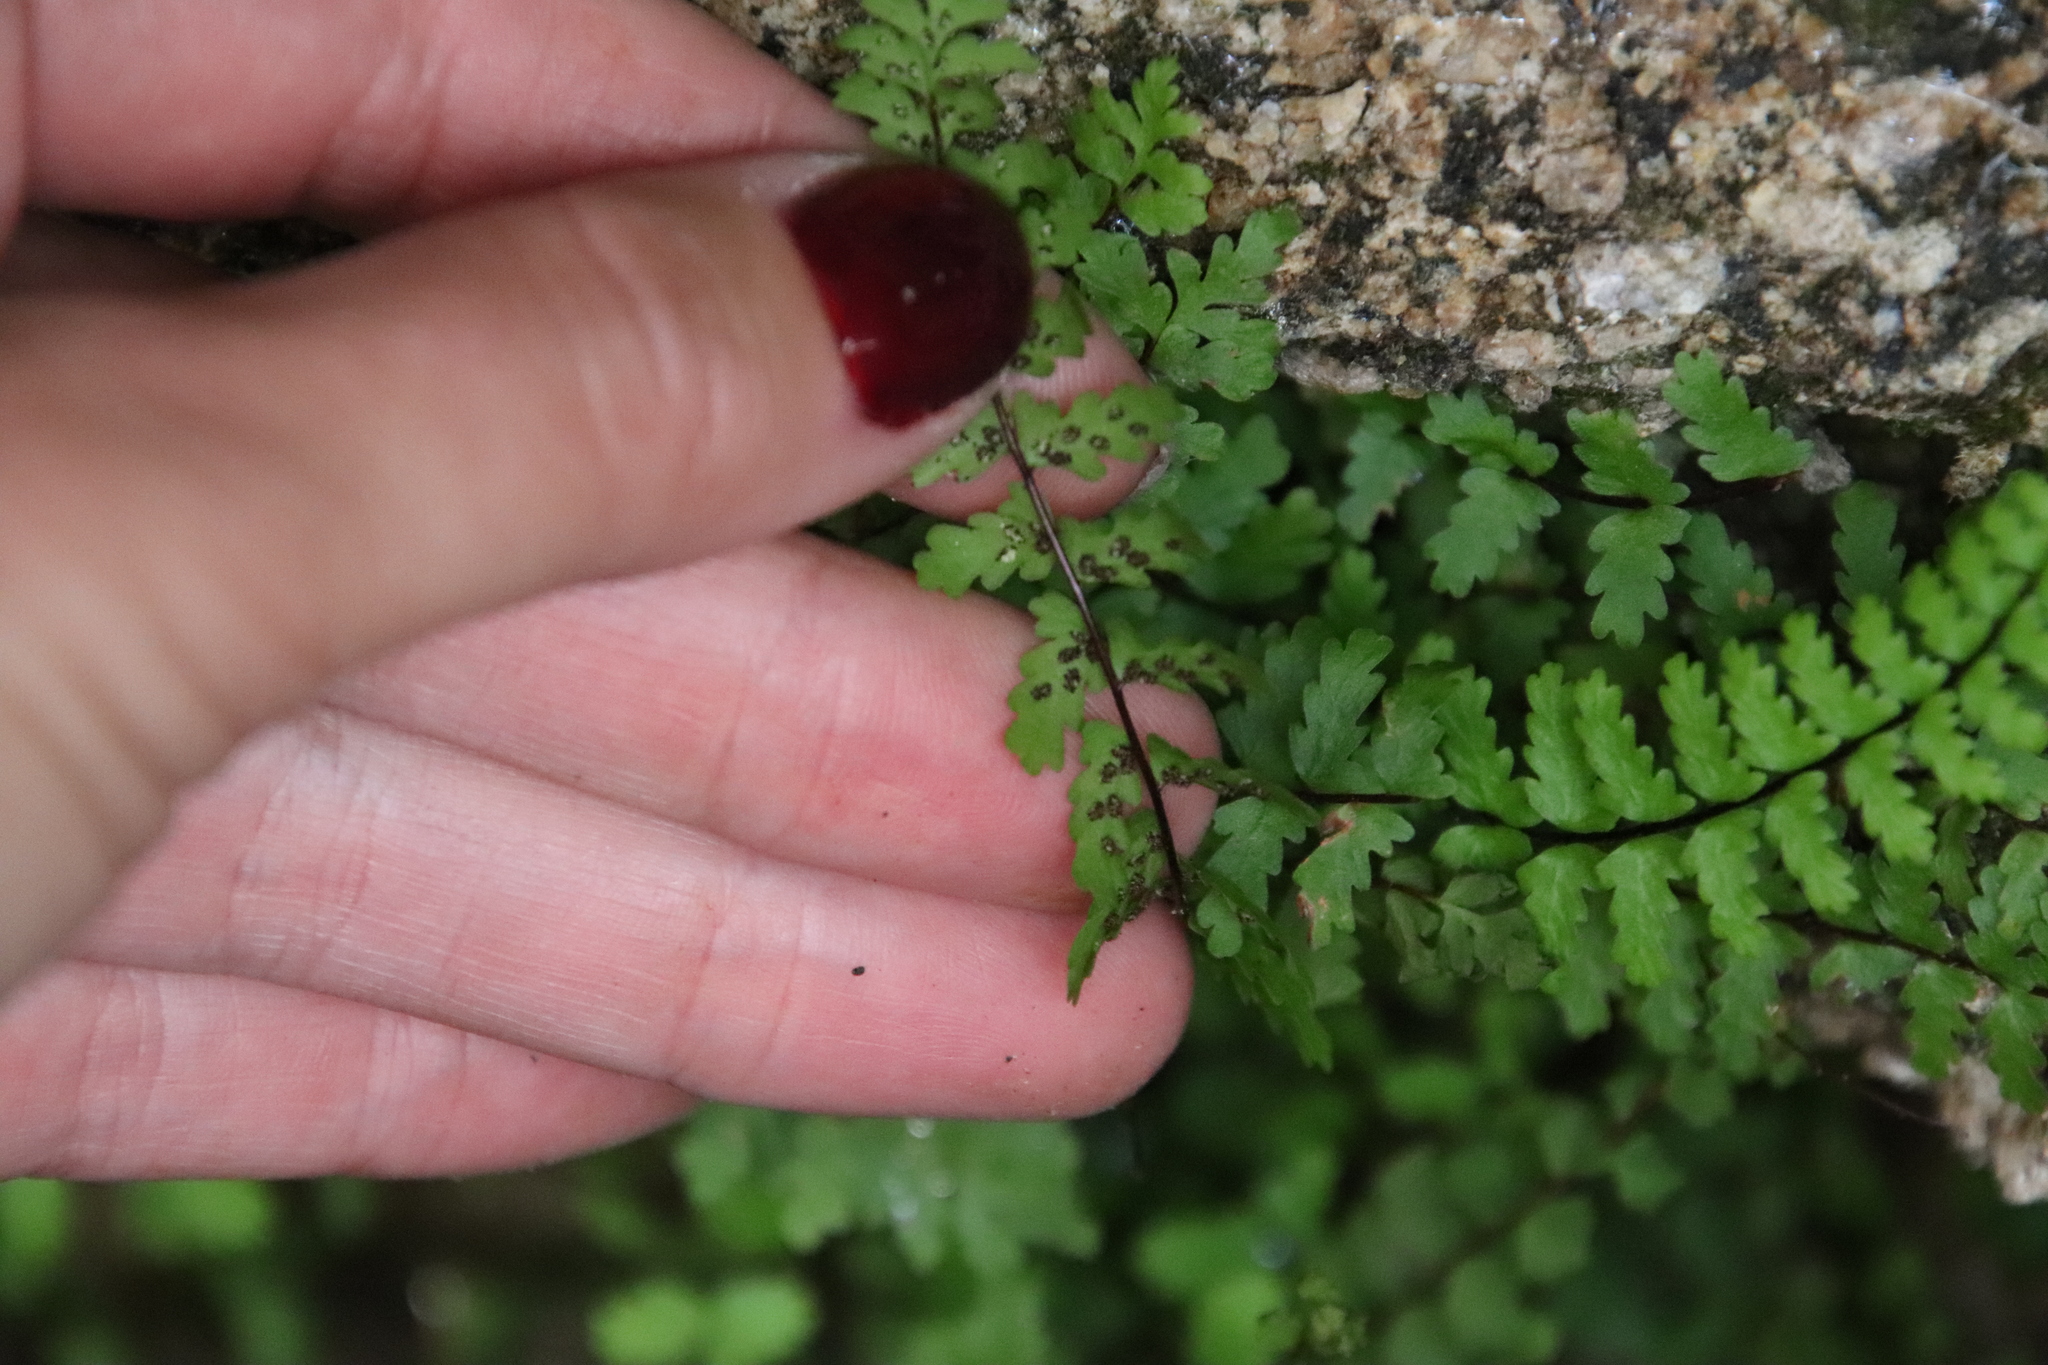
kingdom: Plantae
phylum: Tracheophyta
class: Polypodiopsida
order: Polypodiales
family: Aspleniaceae
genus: Asplenium
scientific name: Asplenium vespertinum
